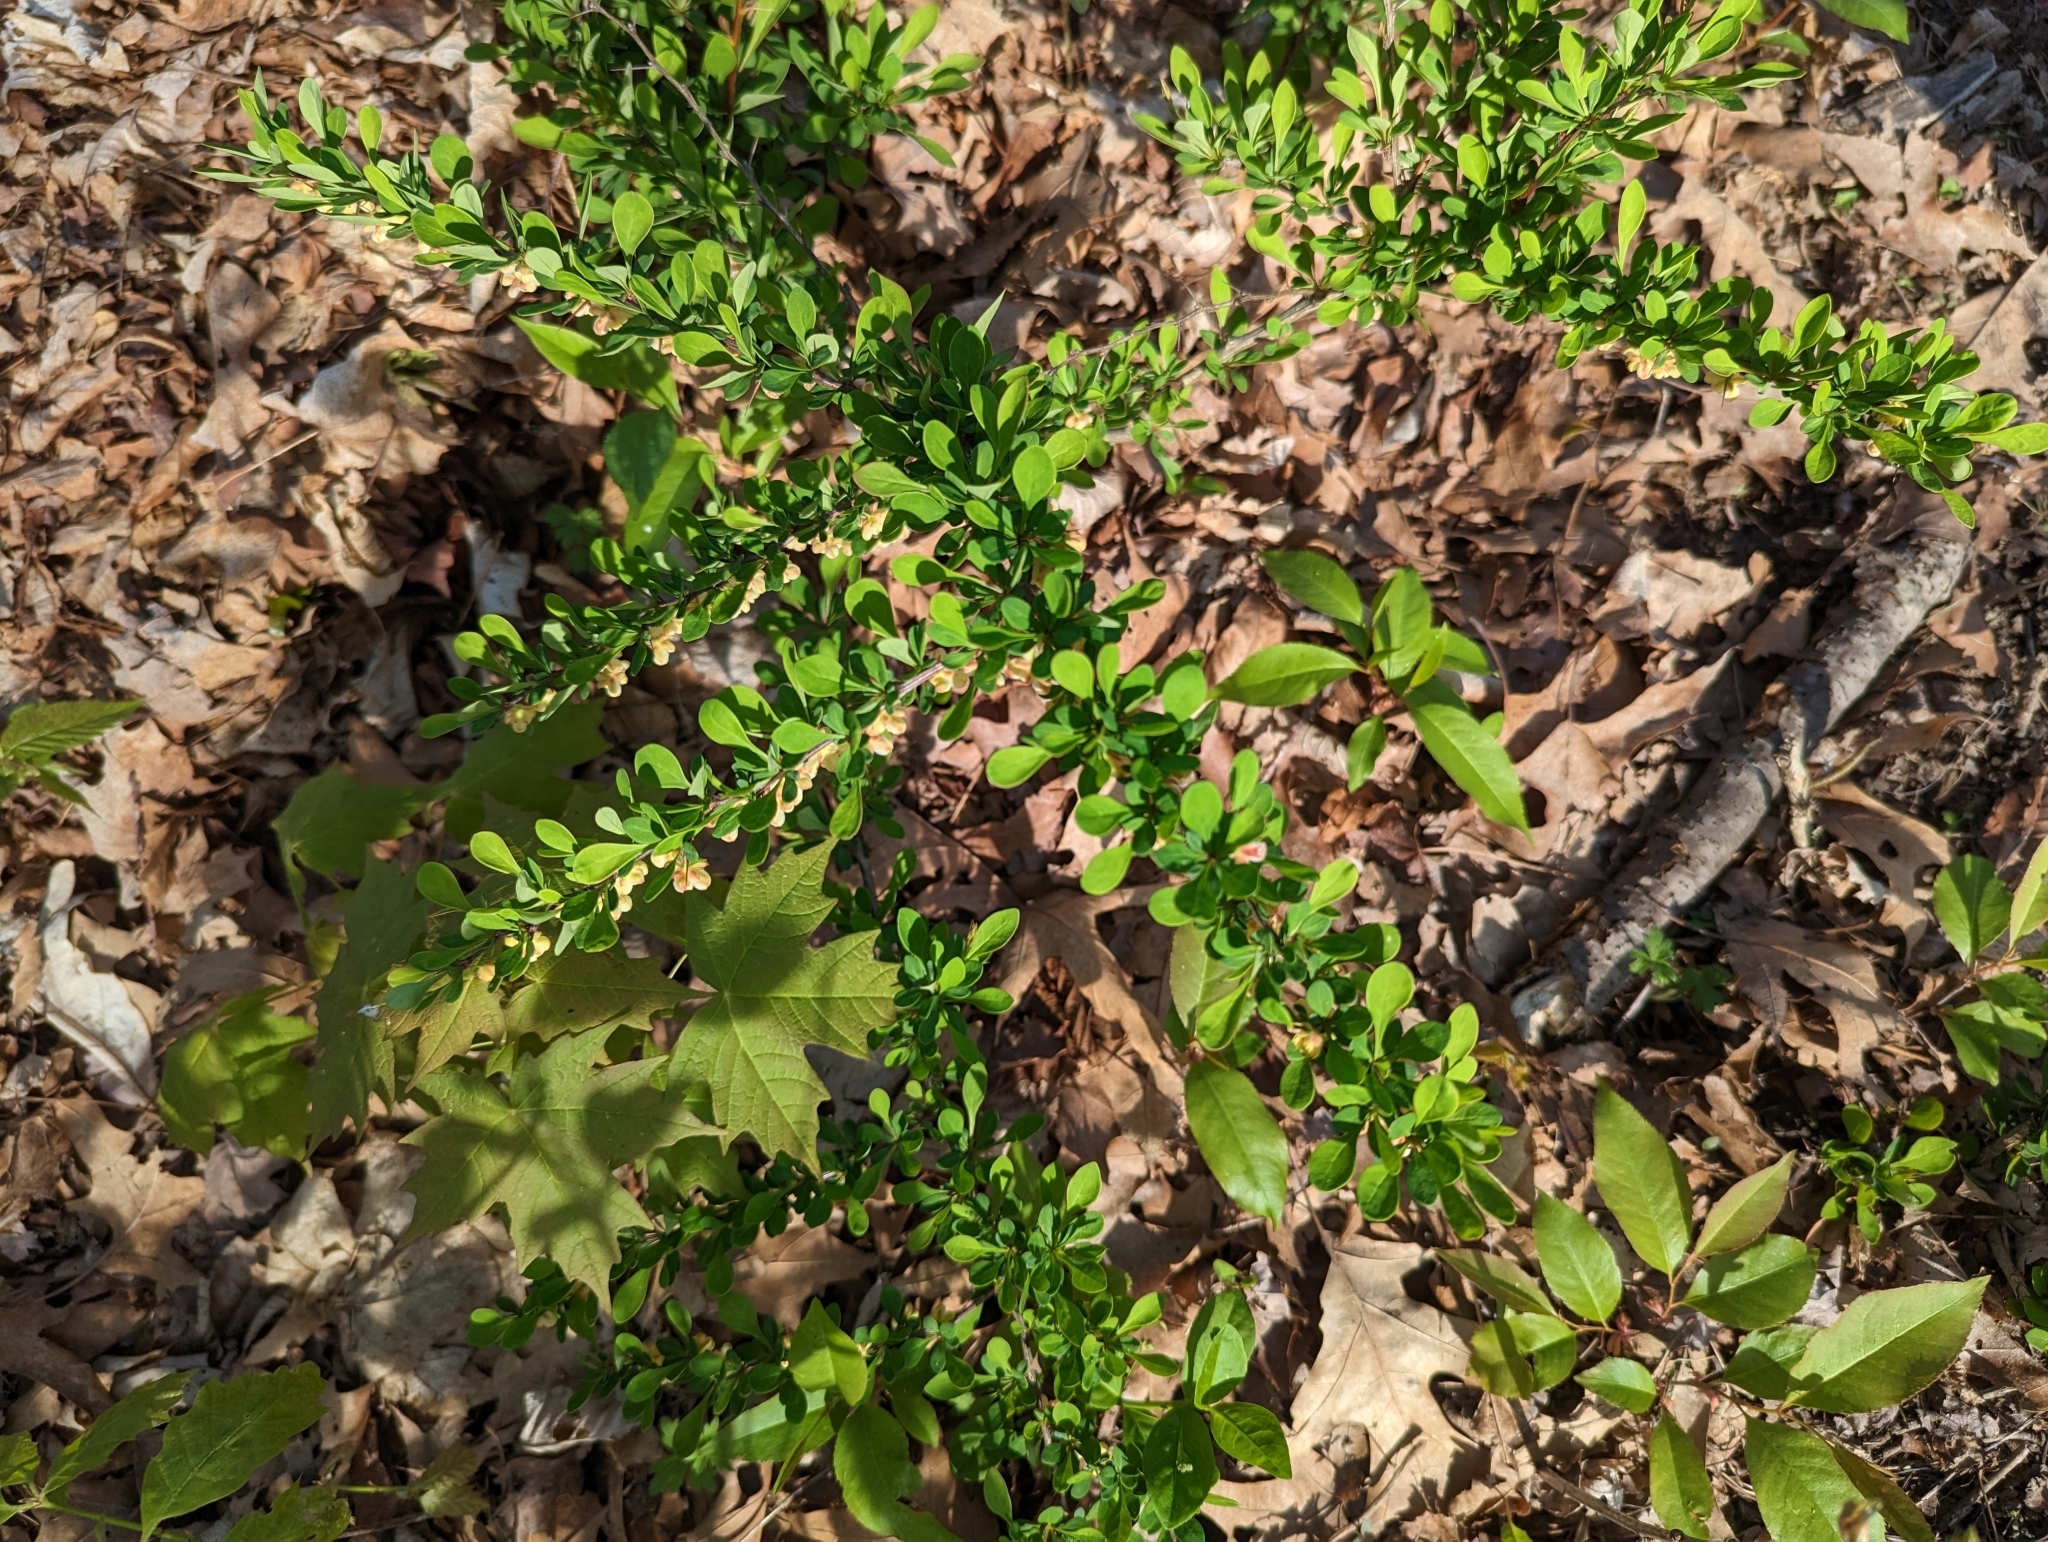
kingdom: Plantae
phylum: Tracheophyta
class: Magnoliopsida
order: Ranunculales
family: Berberidaceae
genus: Berberis
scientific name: Berberis thunbergii
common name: Japanese barberry
